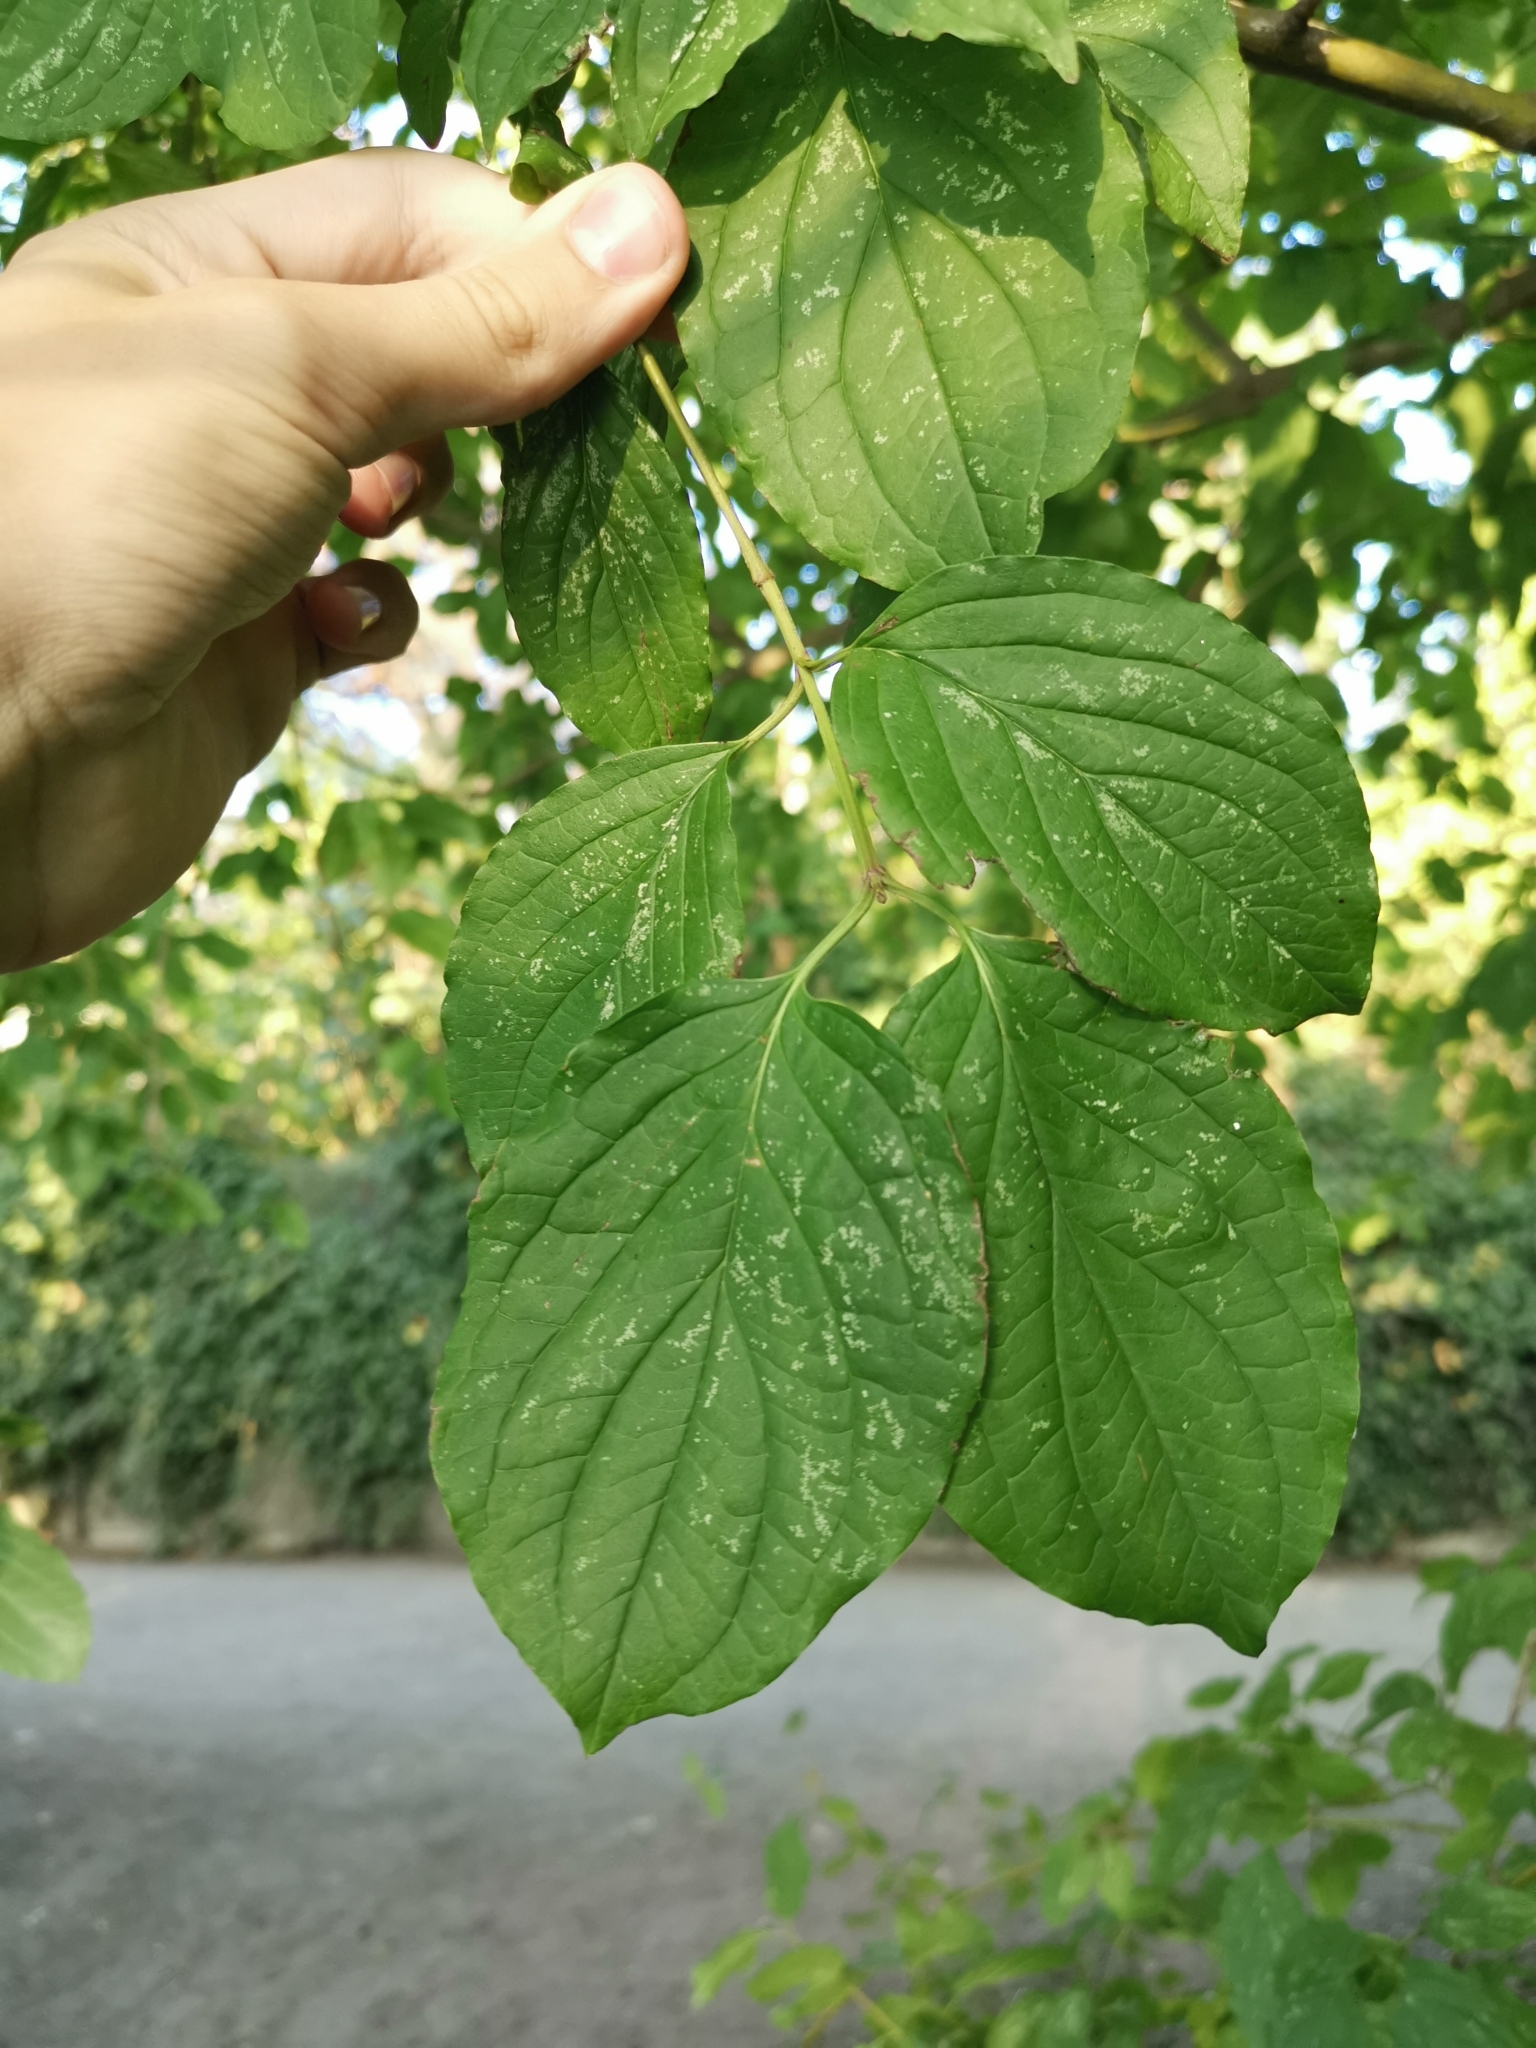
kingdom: Plantae
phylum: Tracheophyta
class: Magnoliopsida
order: Cornales
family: Cornaceae
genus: Cornus
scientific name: Cornus sanguinea
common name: Dogwood
